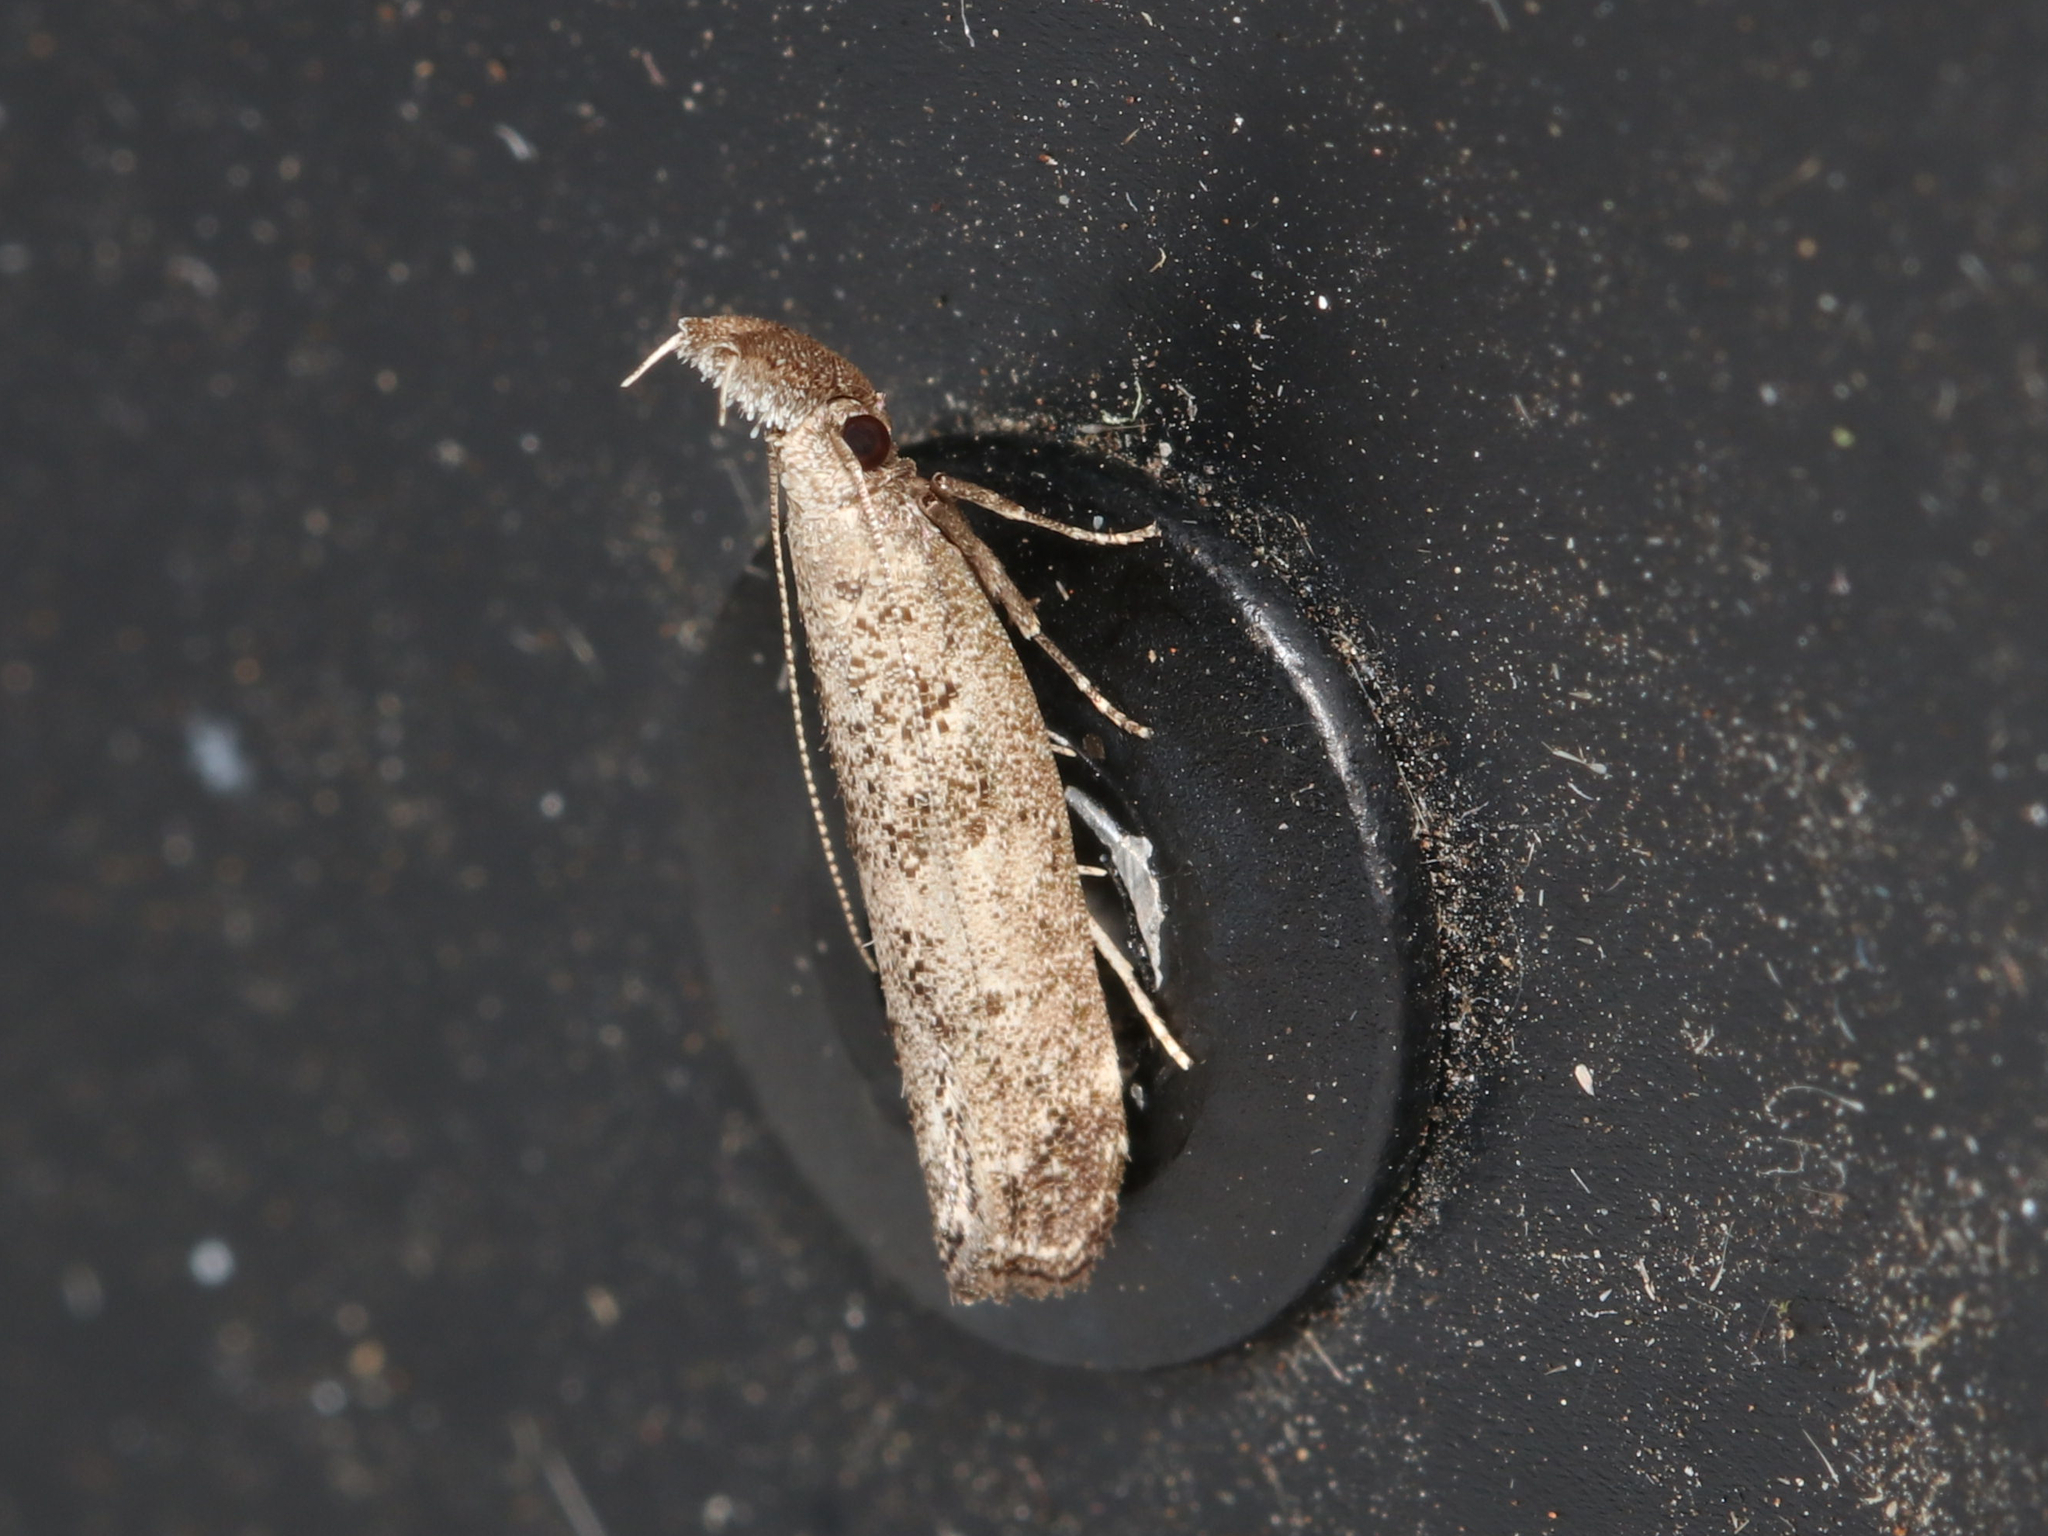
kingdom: Animalia
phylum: Arthropoda
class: Insecta
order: Lepidoptera
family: Gelechiidae
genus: Dichomeris
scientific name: Dichomeris inversella
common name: Inverse dichomeris moth
